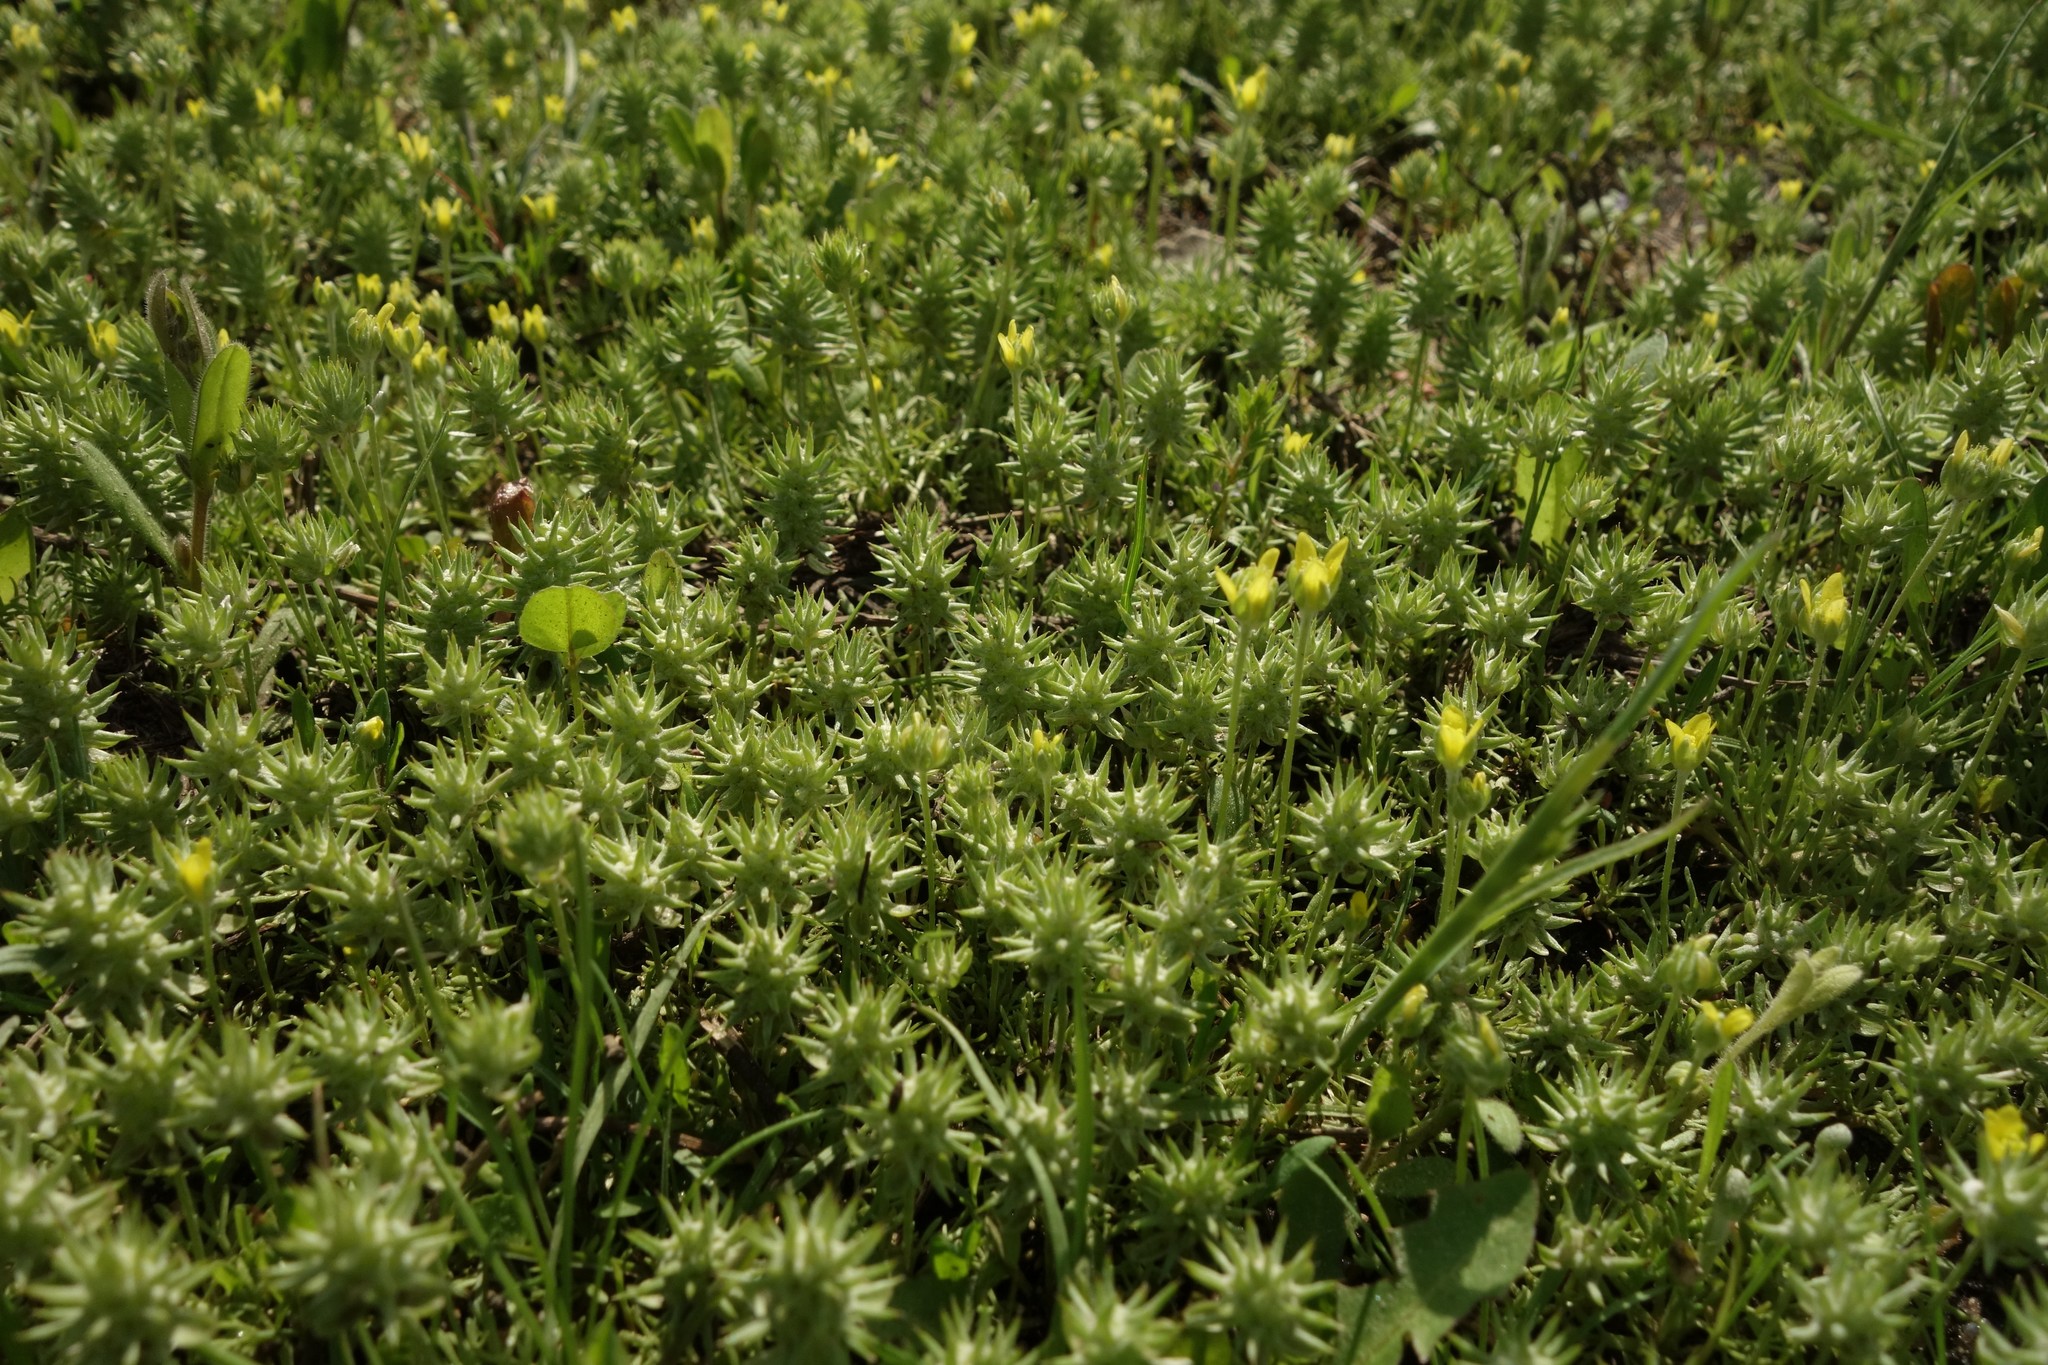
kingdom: Plantae
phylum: Tracheophyta
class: Magnoliopsida
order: Ranunculales
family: Ranunculaceae
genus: Ceratocephala
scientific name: Ceratocephala orthoceras
